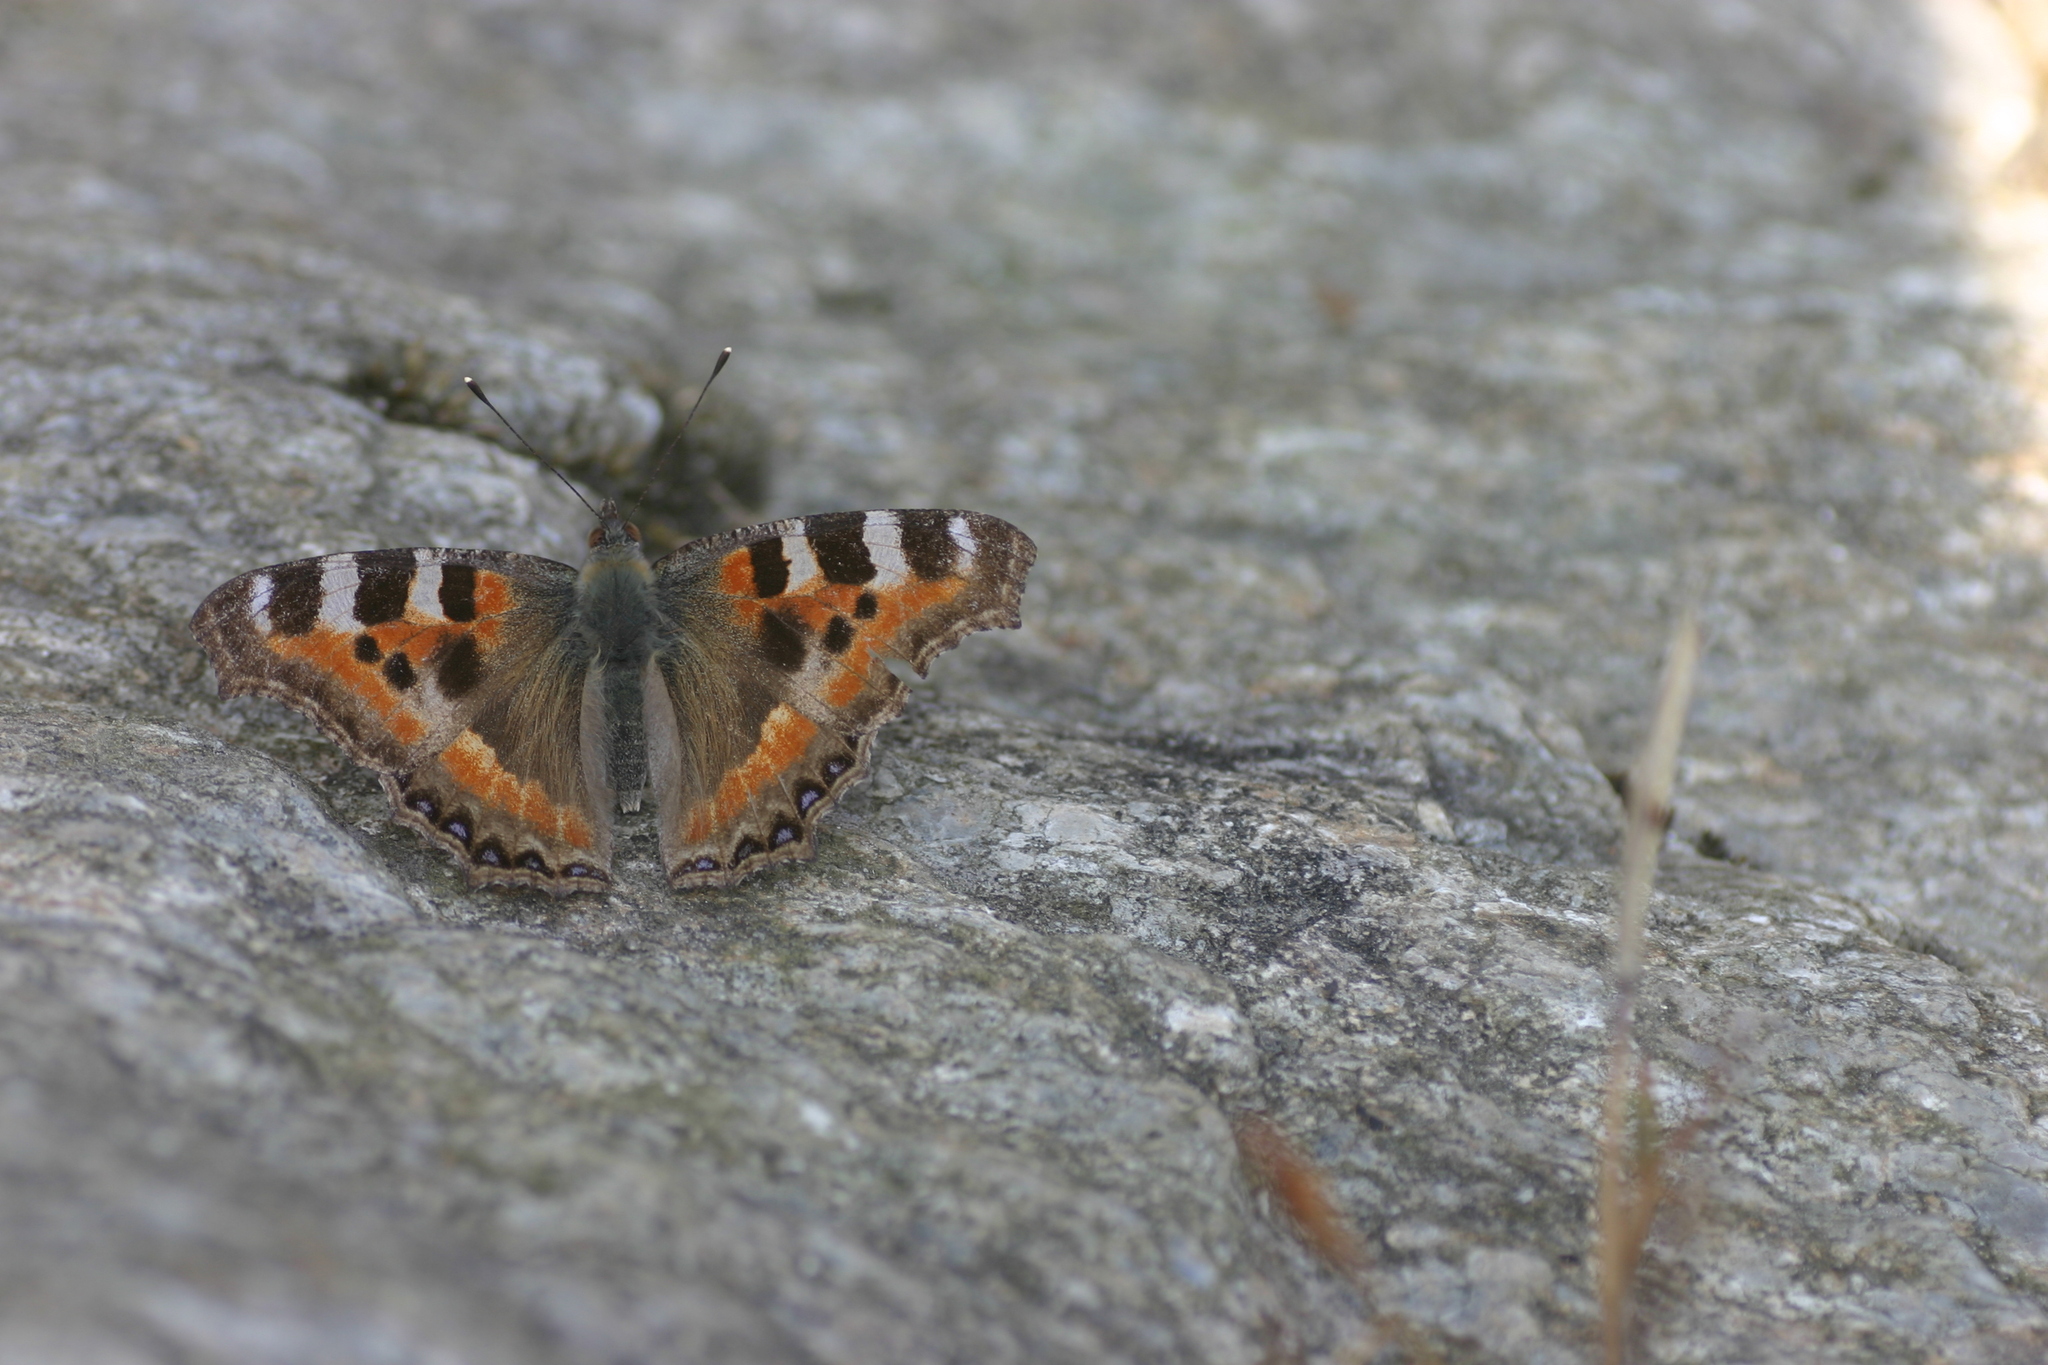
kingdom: Animalia
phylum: Arthropoda
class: Insecta
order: Lepidoptera
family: Nymphalidae
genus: Aglais
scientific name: Aglais caschmirensis
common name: Indian tortoiseshell
